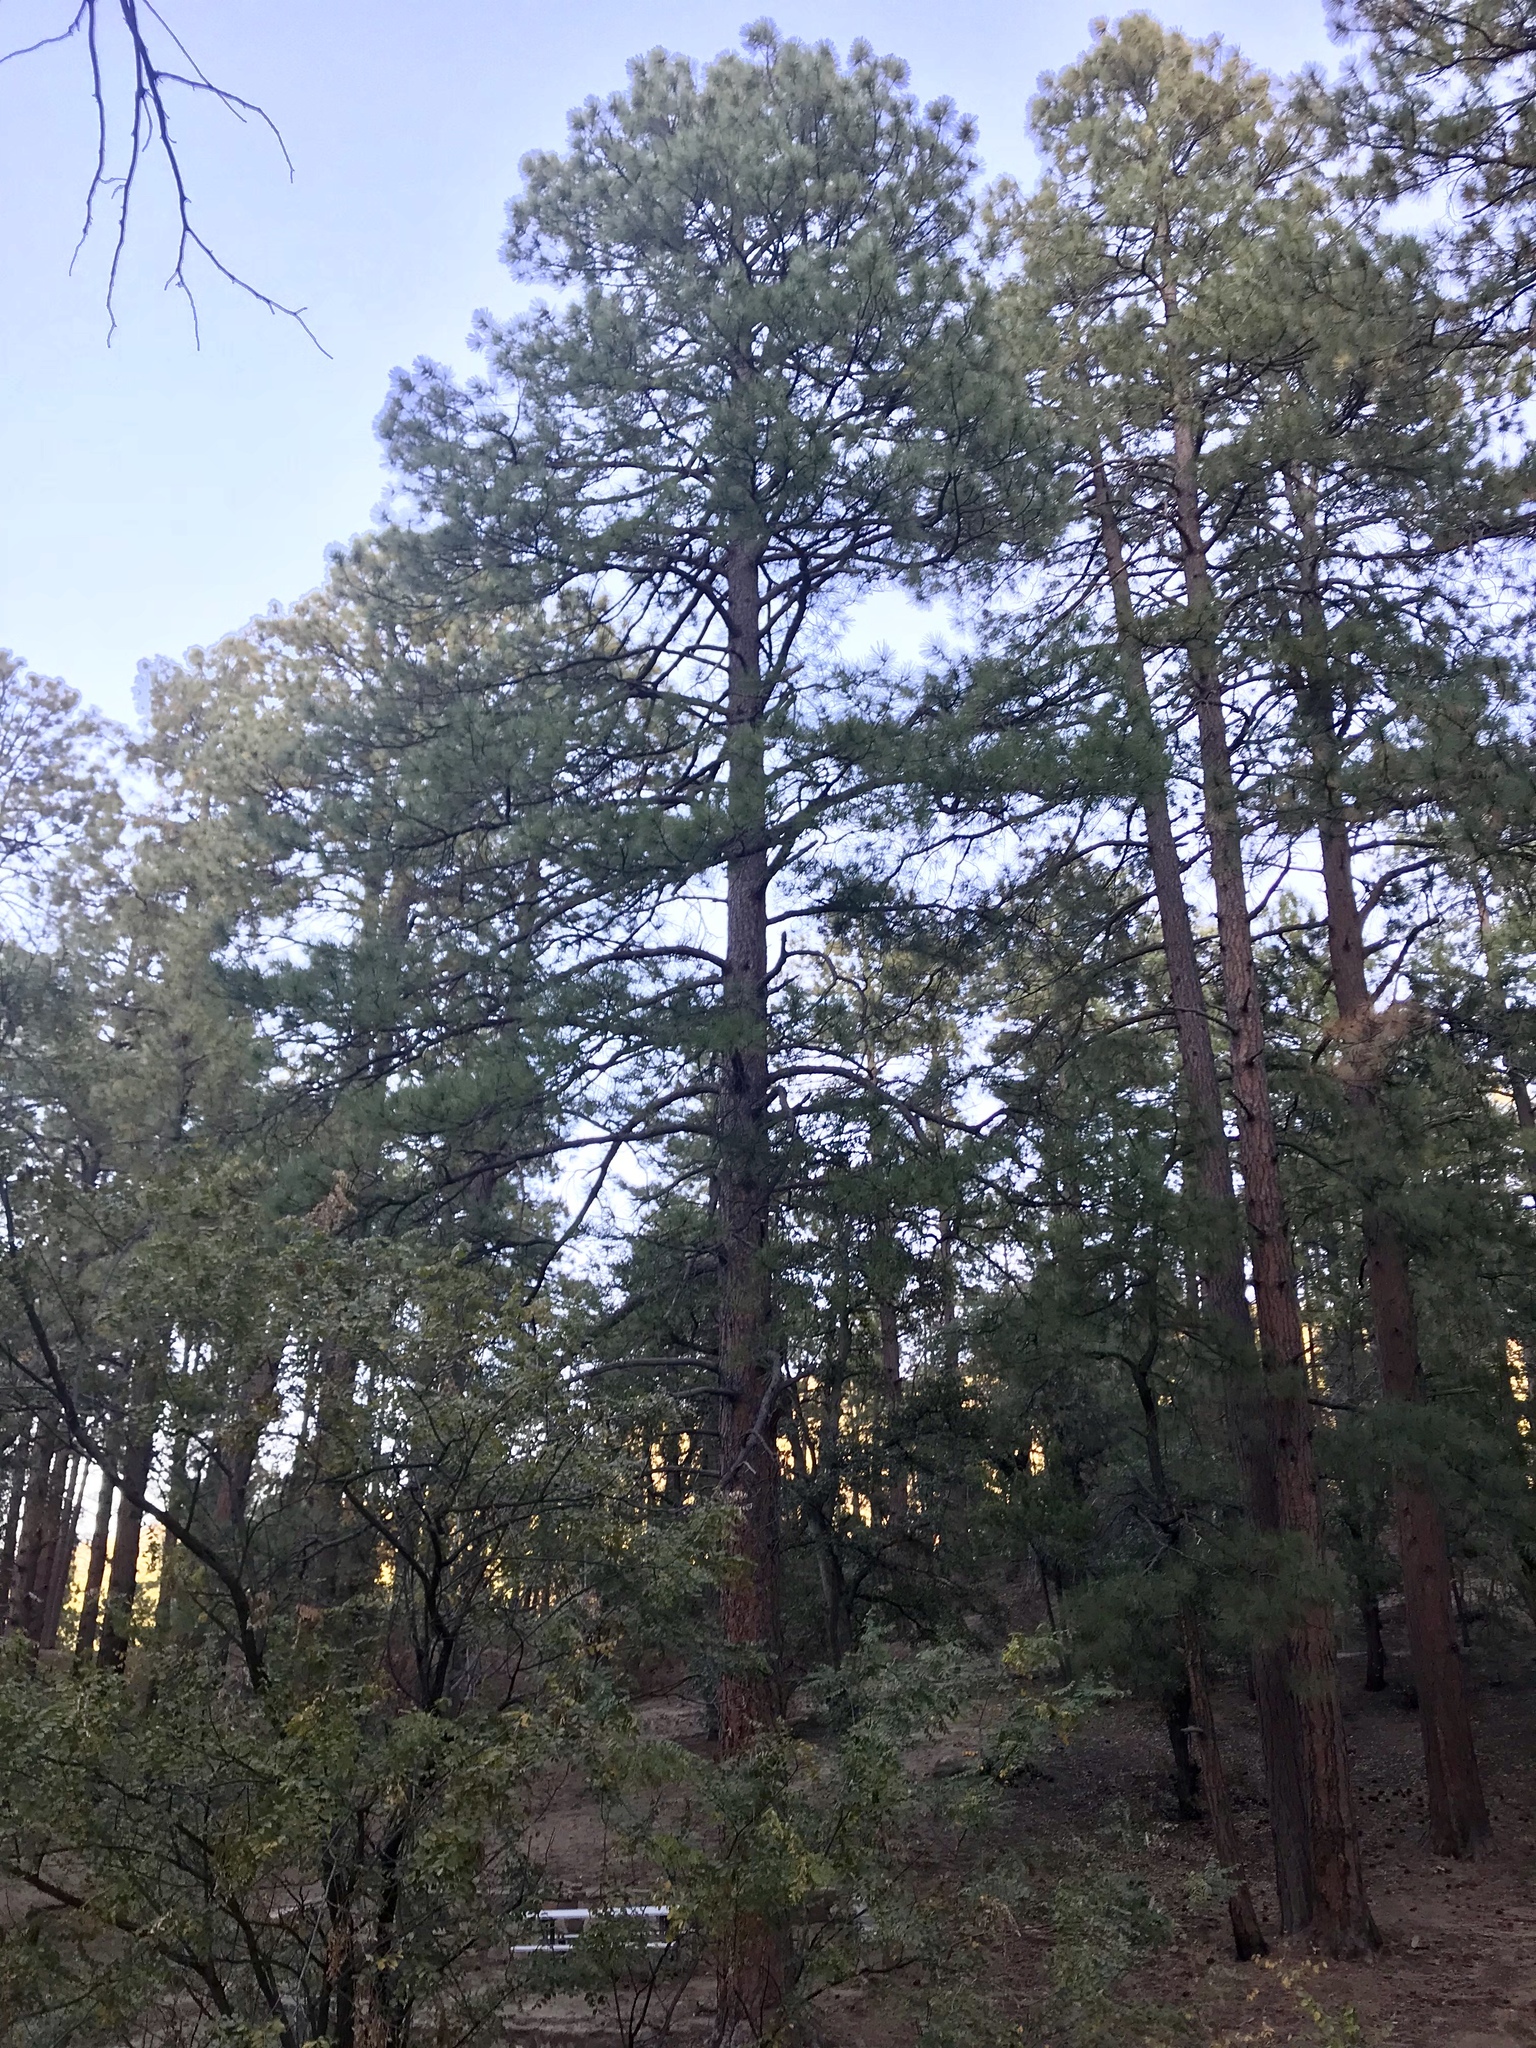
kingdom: Plantae
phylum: Tracheophyta
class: Pinopsida
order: Pinales
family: Pinaceae
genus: Pinus
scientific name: Pinus ponderosa
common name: Western yellow-pine
